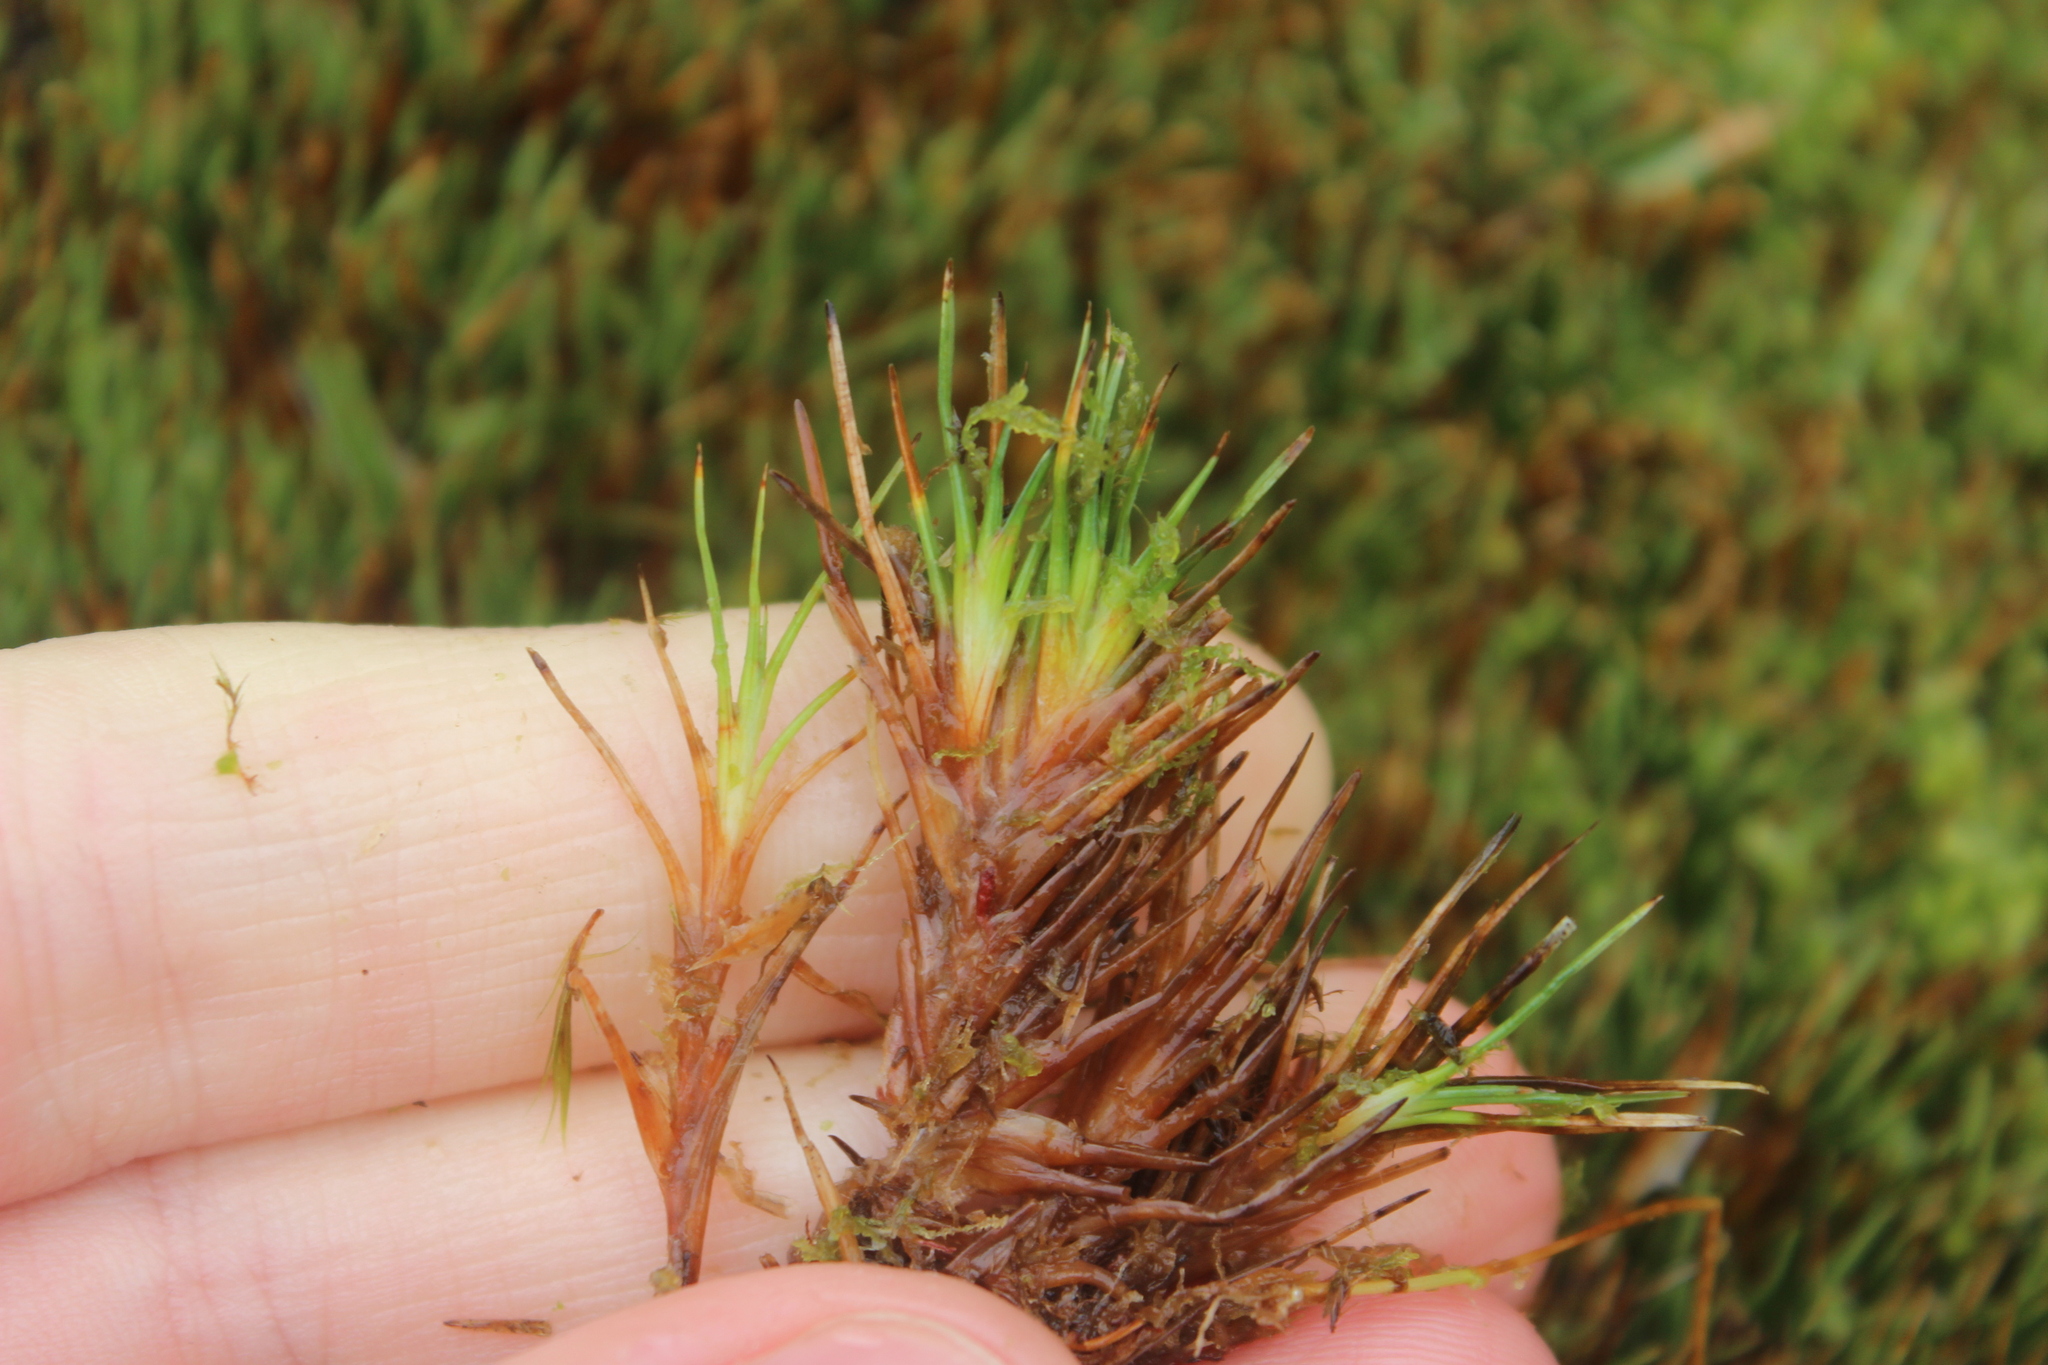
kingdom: Plantae
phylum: Tracheophyta
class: Liliopsida
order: Poales
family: Cyperaceae
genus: Oreobolus
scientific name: Oreobolus pectinatus
